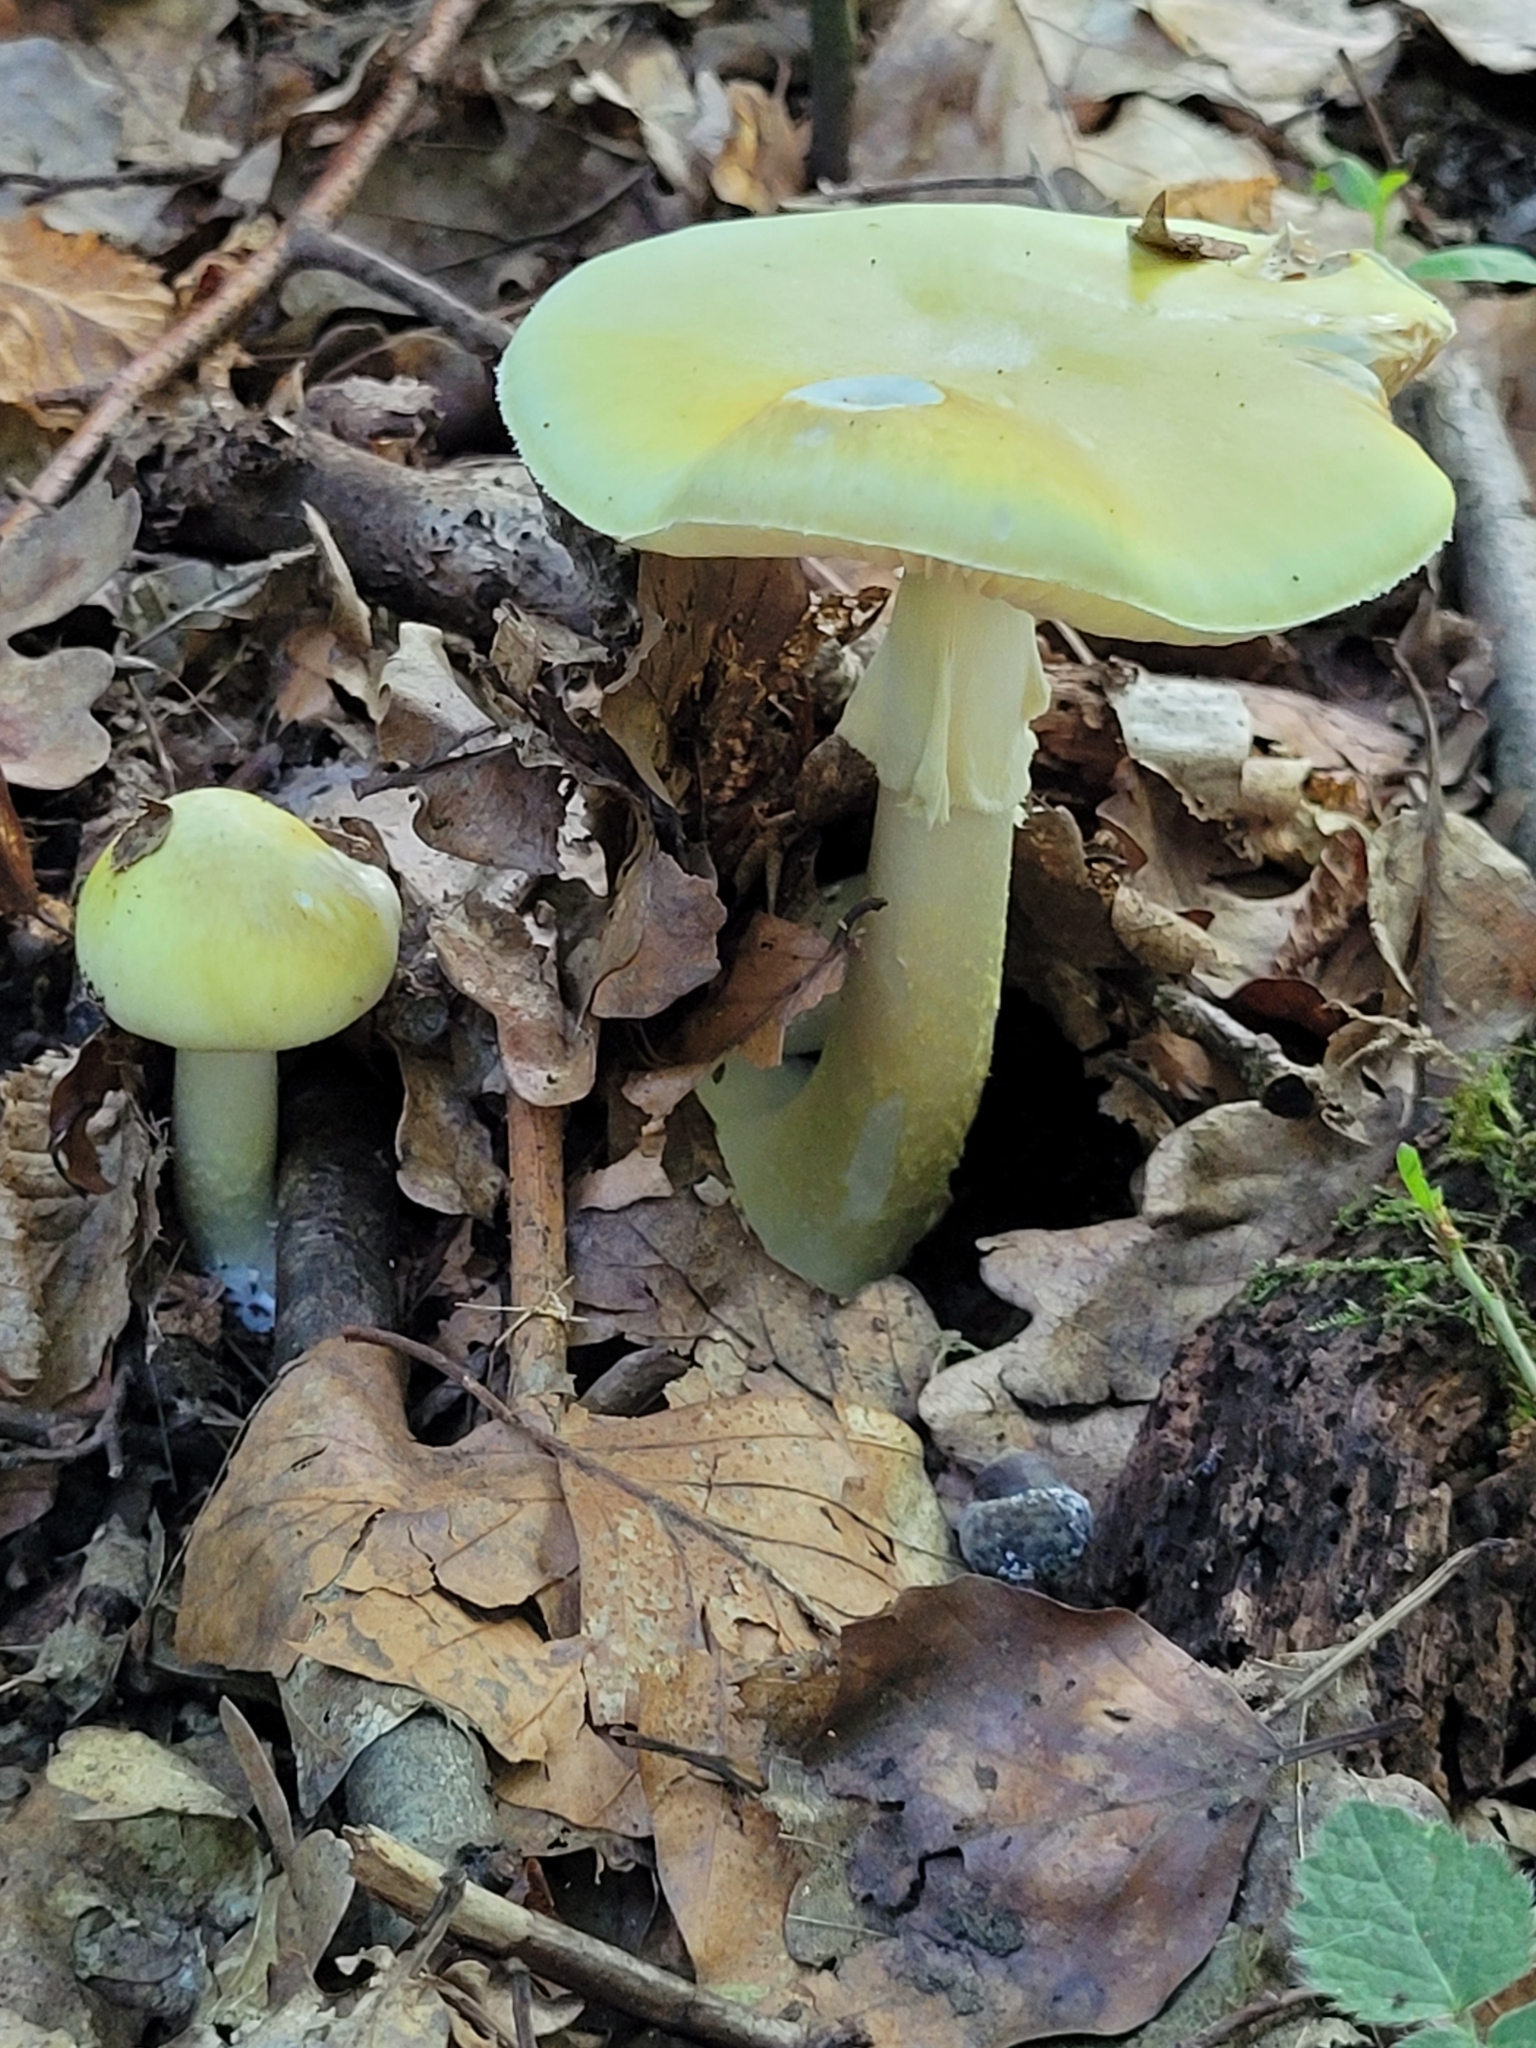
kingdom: Fungi
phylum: Basidiomycota
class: Agaricomycetes
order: Agaricales
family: Amanitaceae
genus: Amanita
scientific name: Amanita phalloides
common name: Death cap
